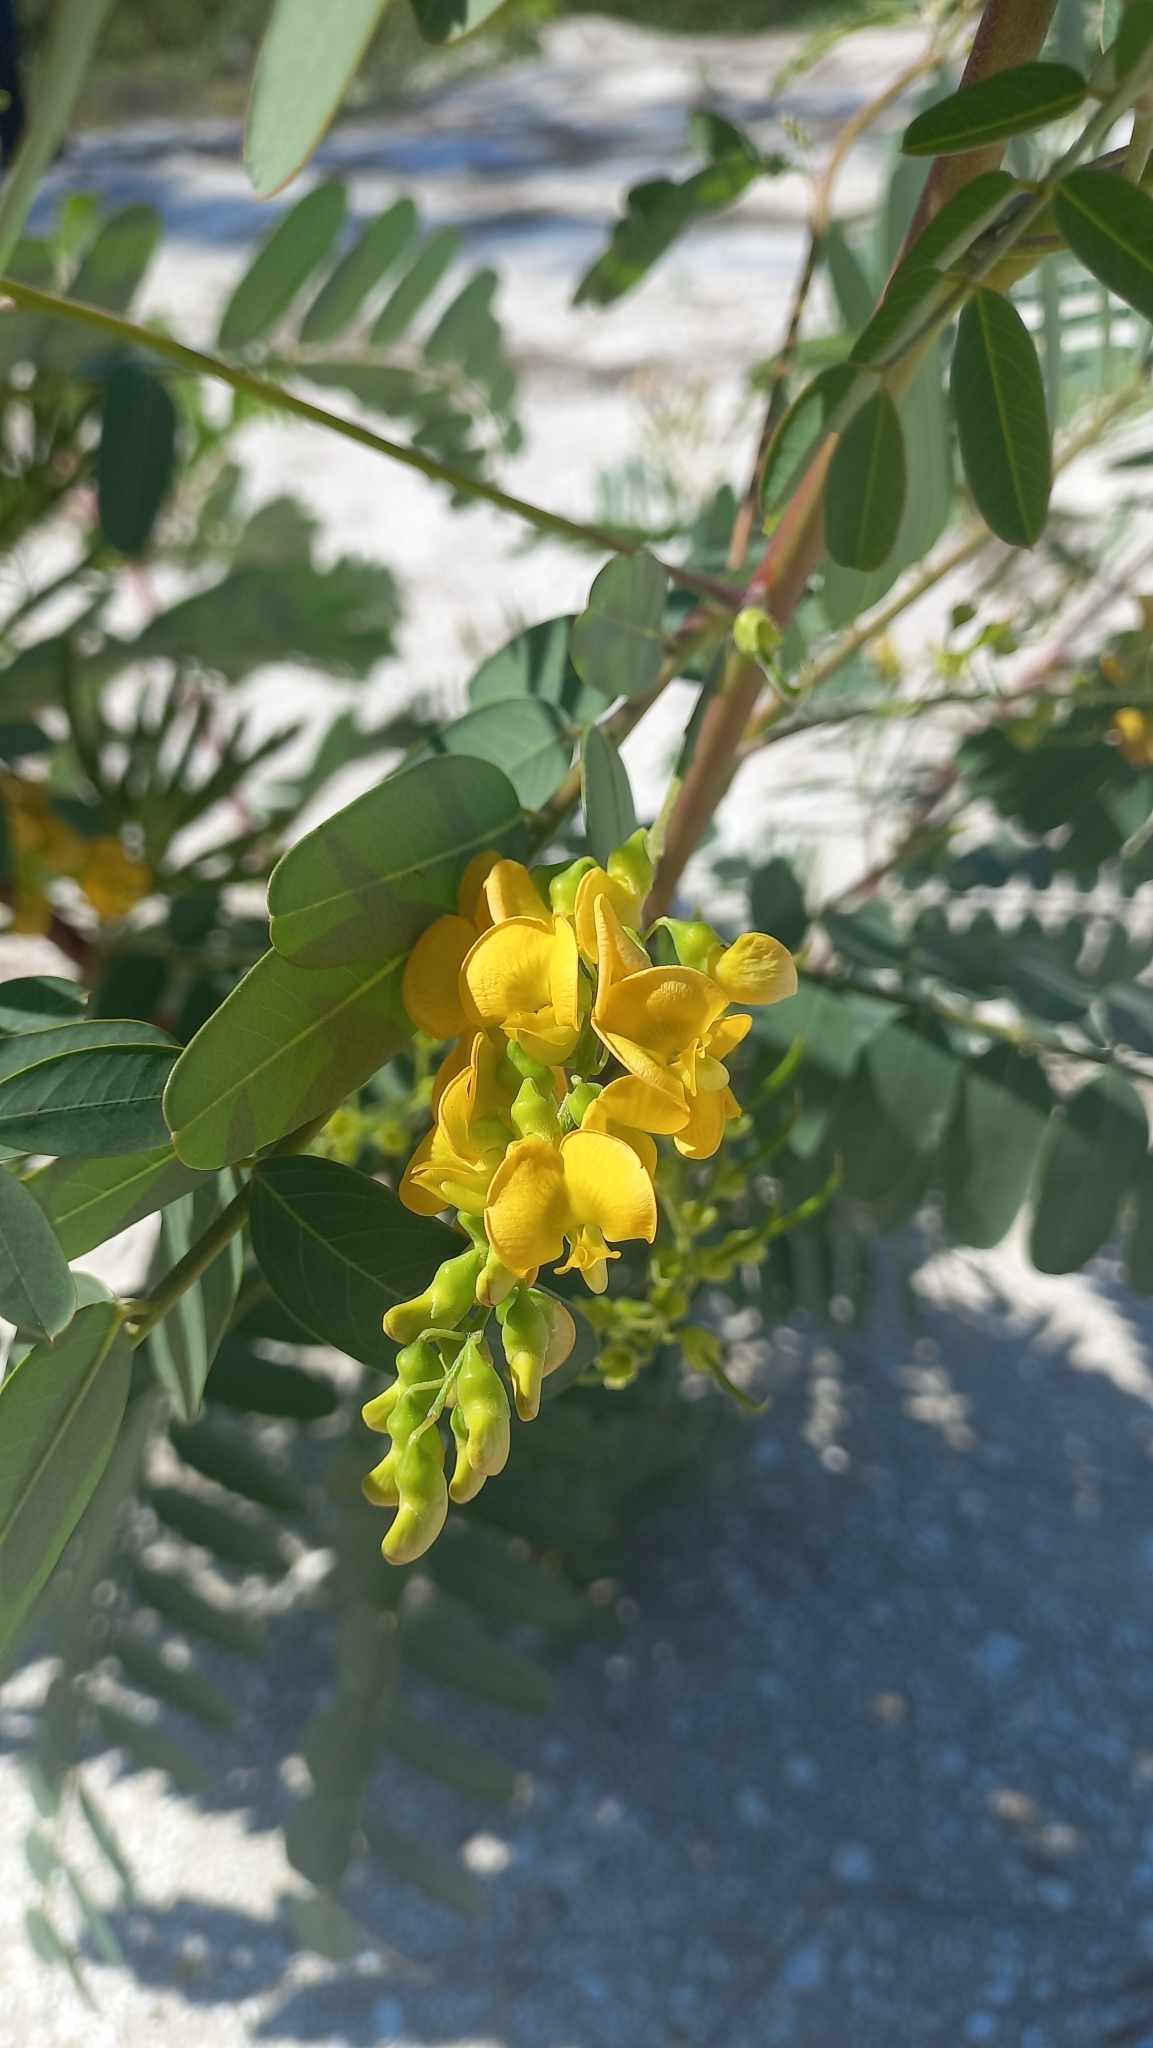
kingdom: Plantae
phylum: Tracheophyta
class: Magnoliopsida
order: Fabales
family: Fabaceae
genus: Sesbania
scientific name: Sesbania virgata
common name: Wand riverhemp
